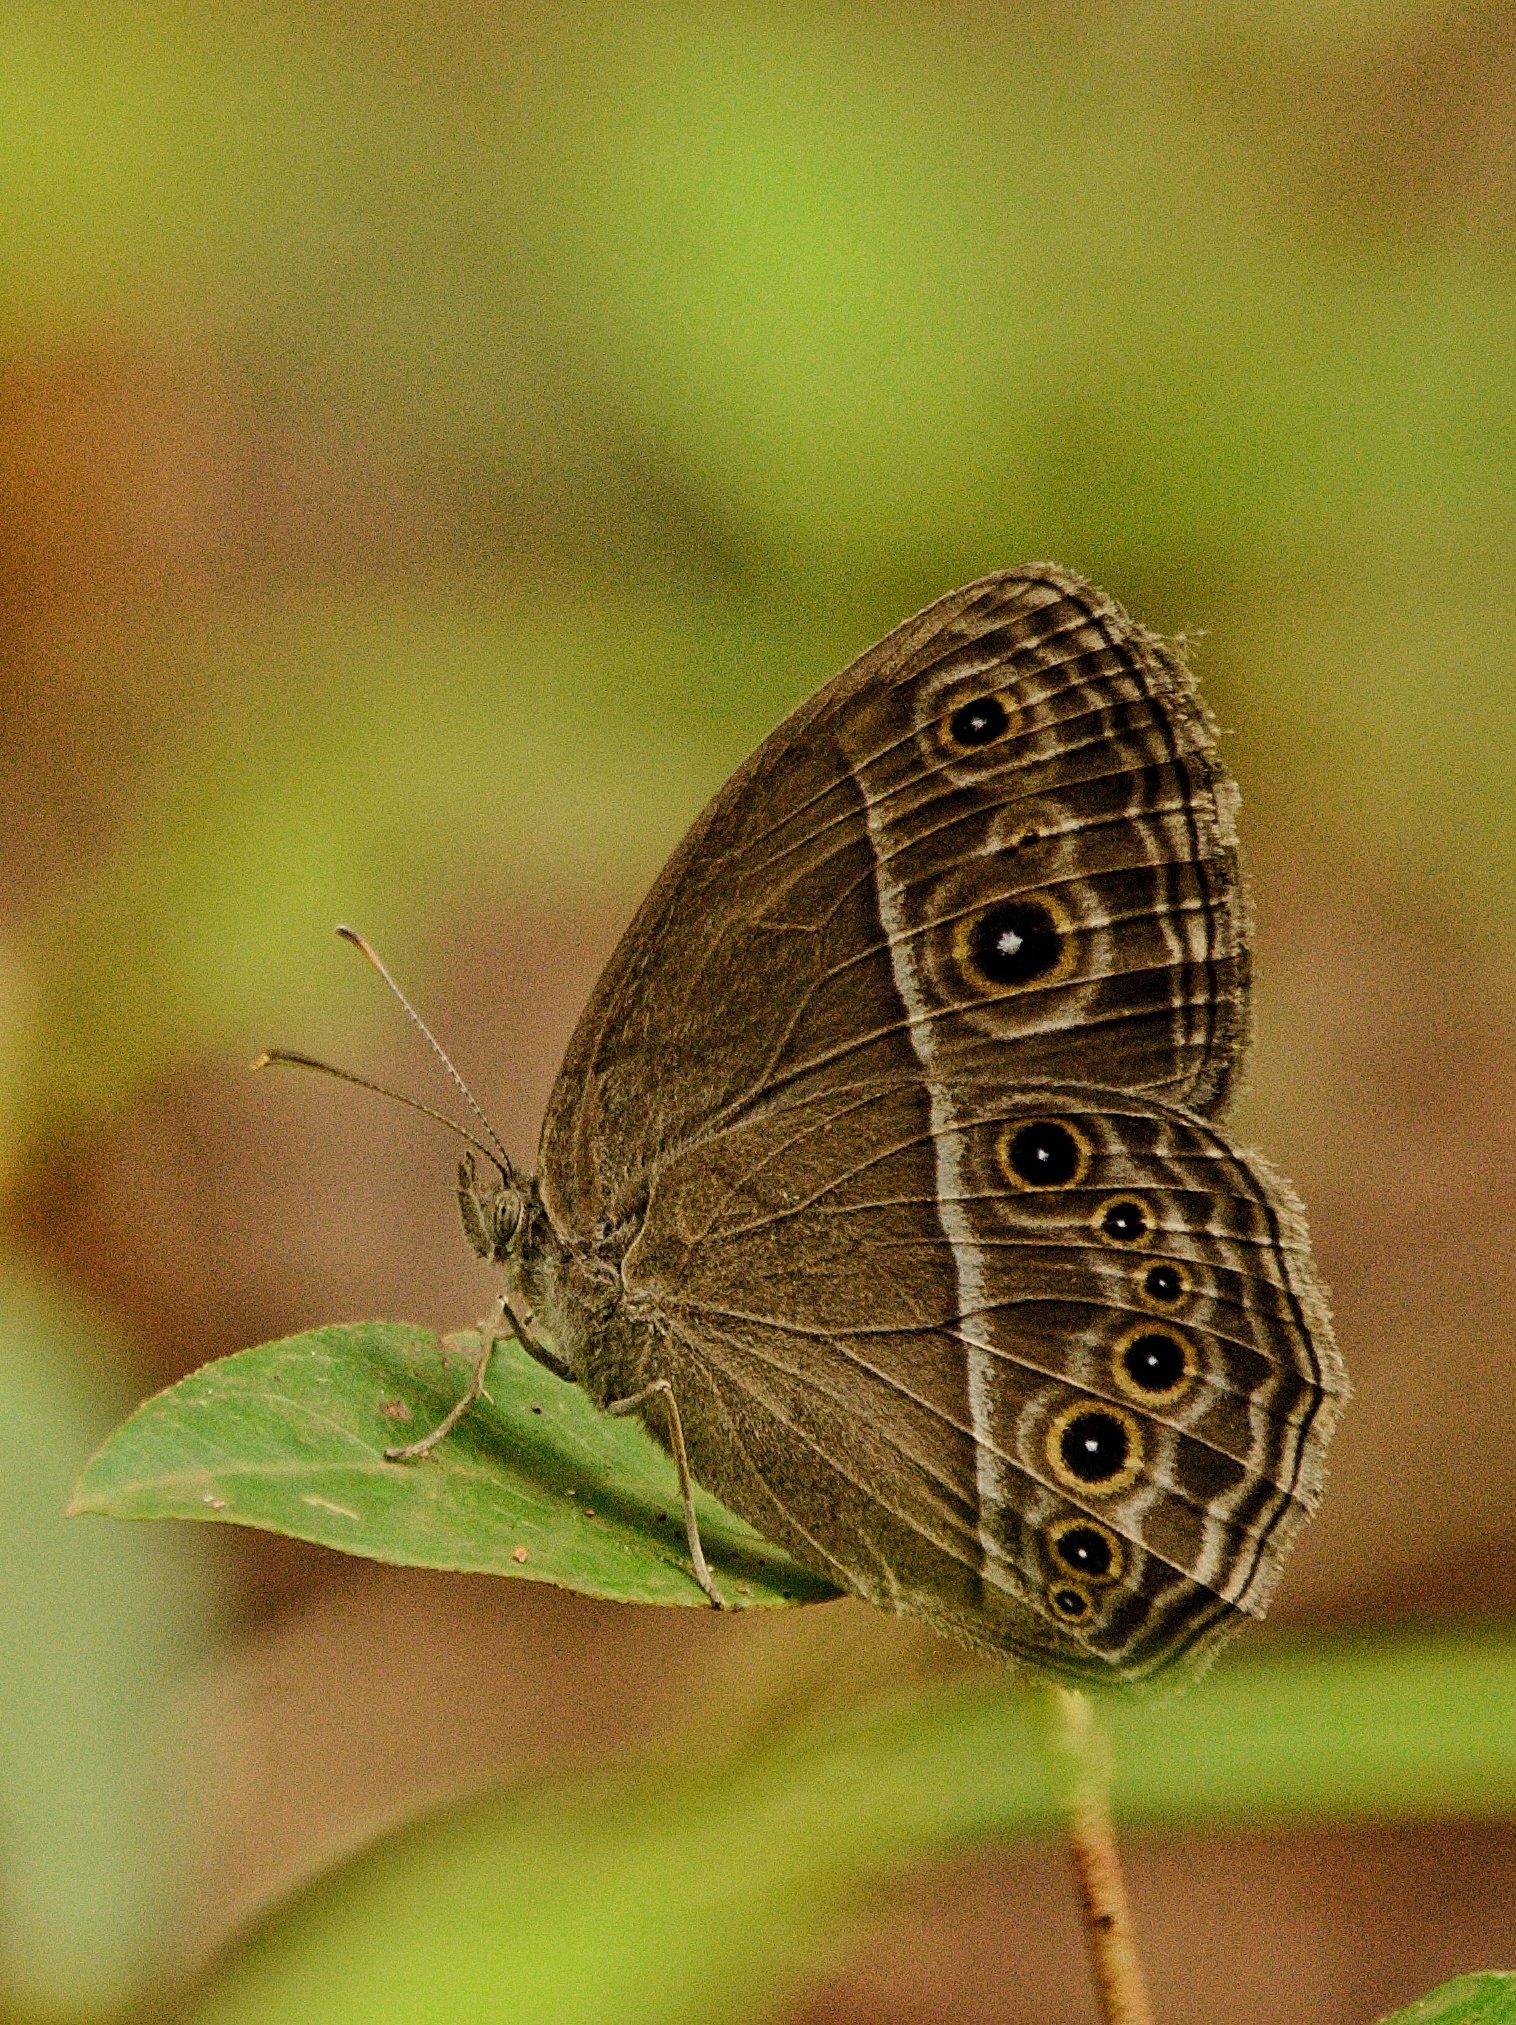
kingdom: Animalia
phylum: Arthropoda
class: Insecta
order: Lepidoptera
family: Nymphalidae
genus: Mycalesis
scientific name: Mycalesis perseus
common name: Dingy bushbrown
